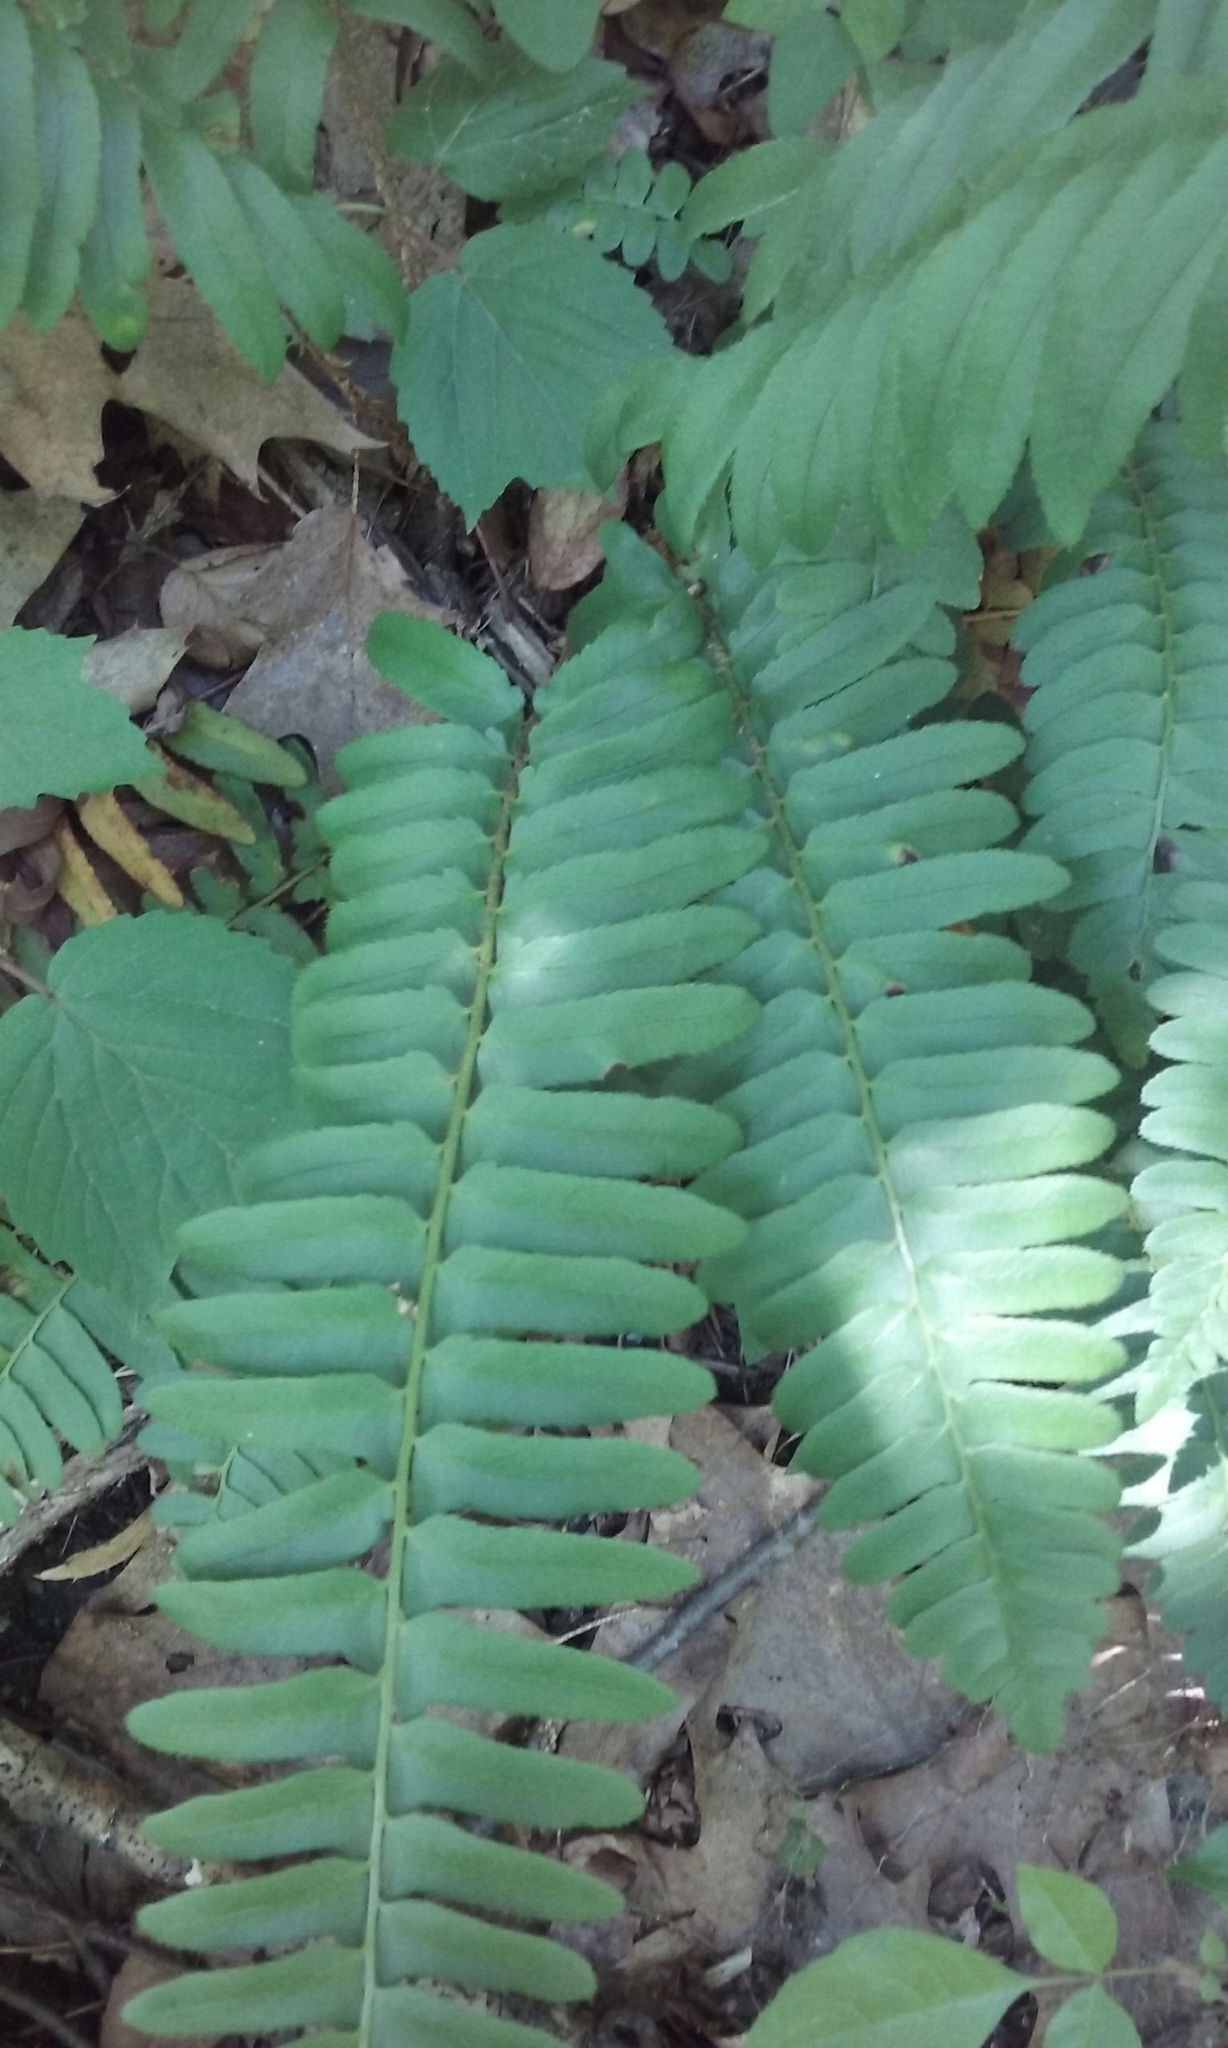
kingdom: Plantae
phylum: Tracheophyta
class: Polypodiopsida
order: Polypodiales
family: Dryopteridaceae
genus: Polystichum
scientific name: Polystichum acrostichoides
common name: Christmas fern
